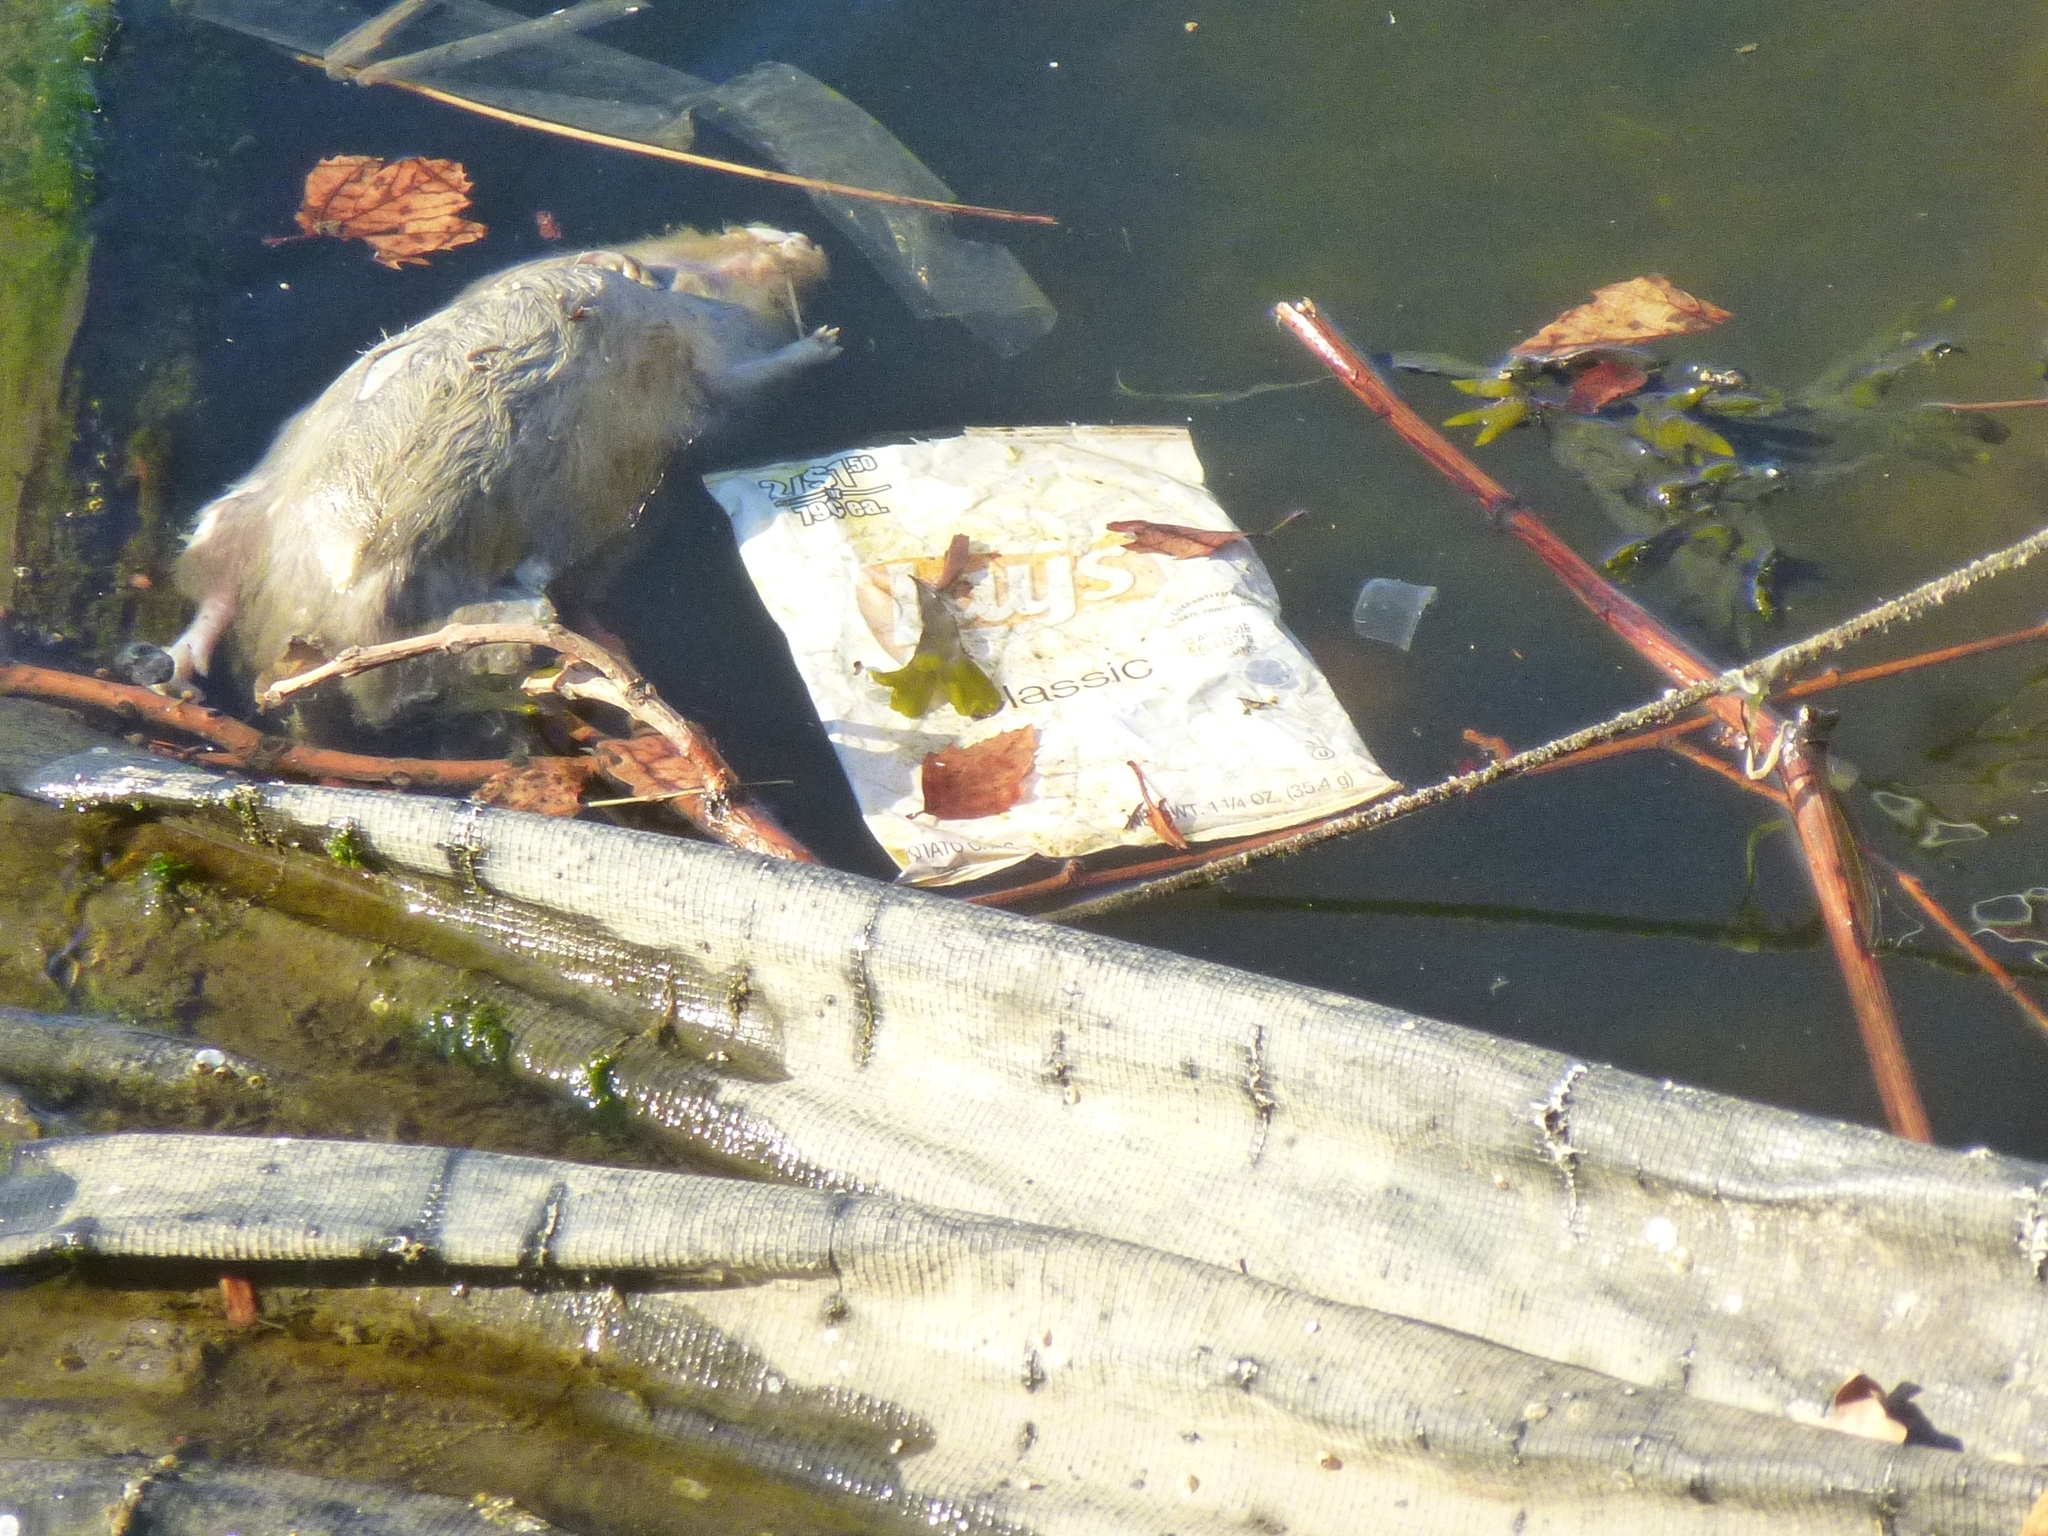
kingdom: Animalia
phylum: Chordata
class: Mammalia
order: Rodentia
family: Muridae
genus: Rattus
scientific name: Rattus norvegicus
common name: Brown rat
